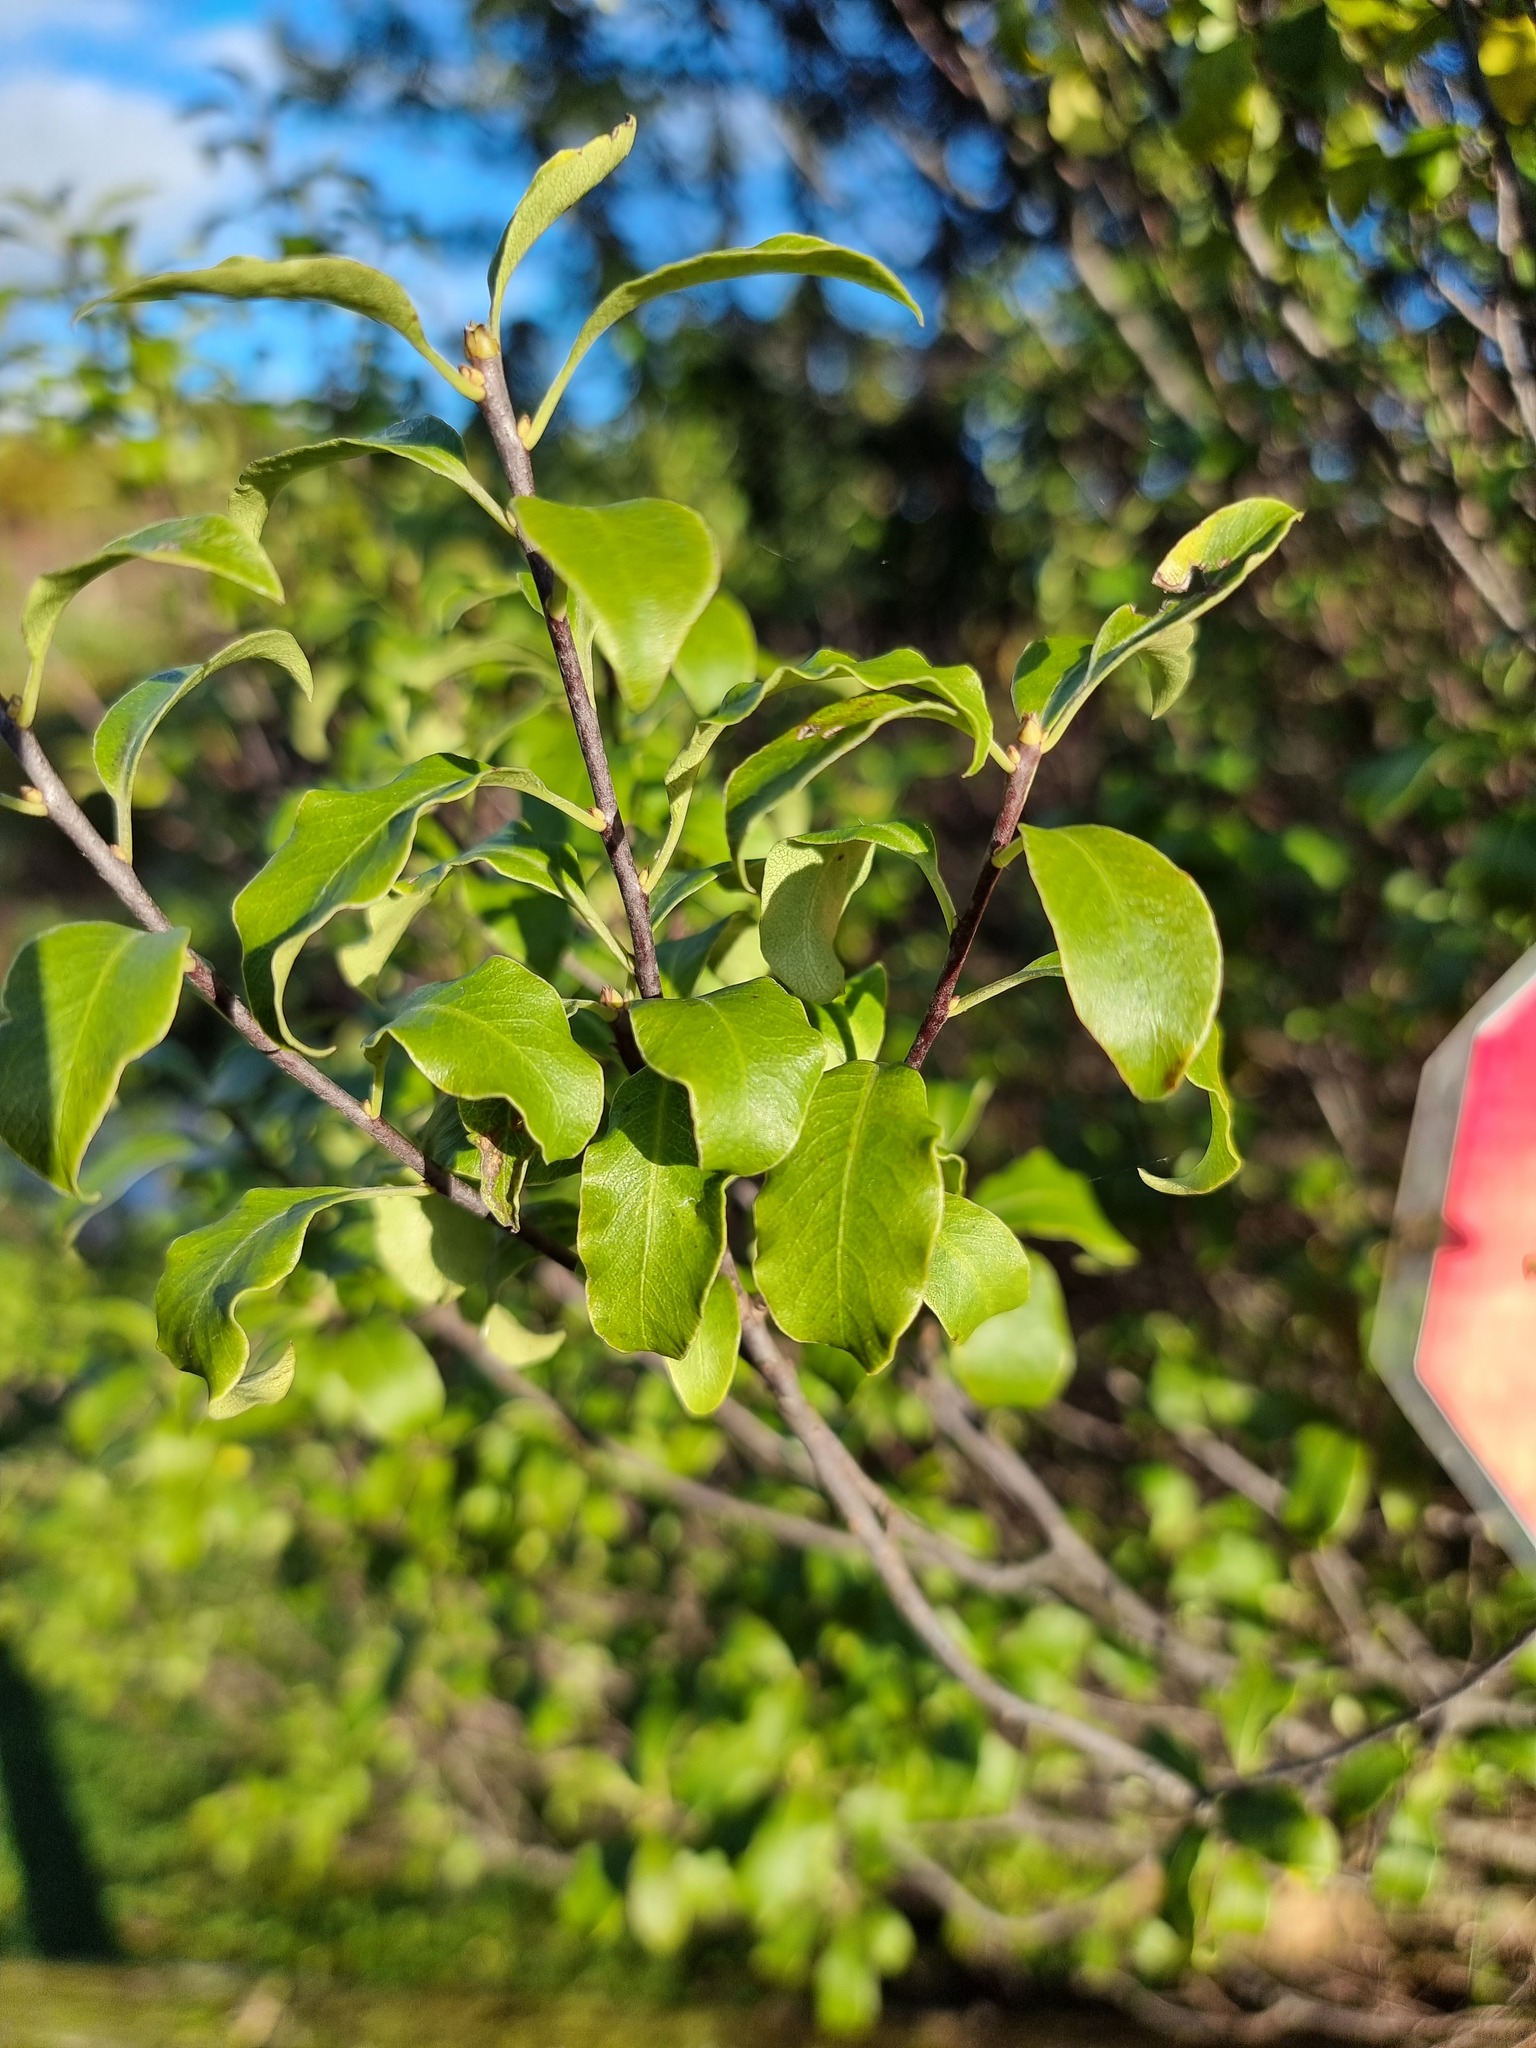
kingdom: Plantae
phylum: Tracheophyta
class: Magnoliopsida
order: Apiales
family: Pittosporaceae
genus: Pittosporum
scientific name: Pittosporum tenuifolium
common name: Kohuhu
